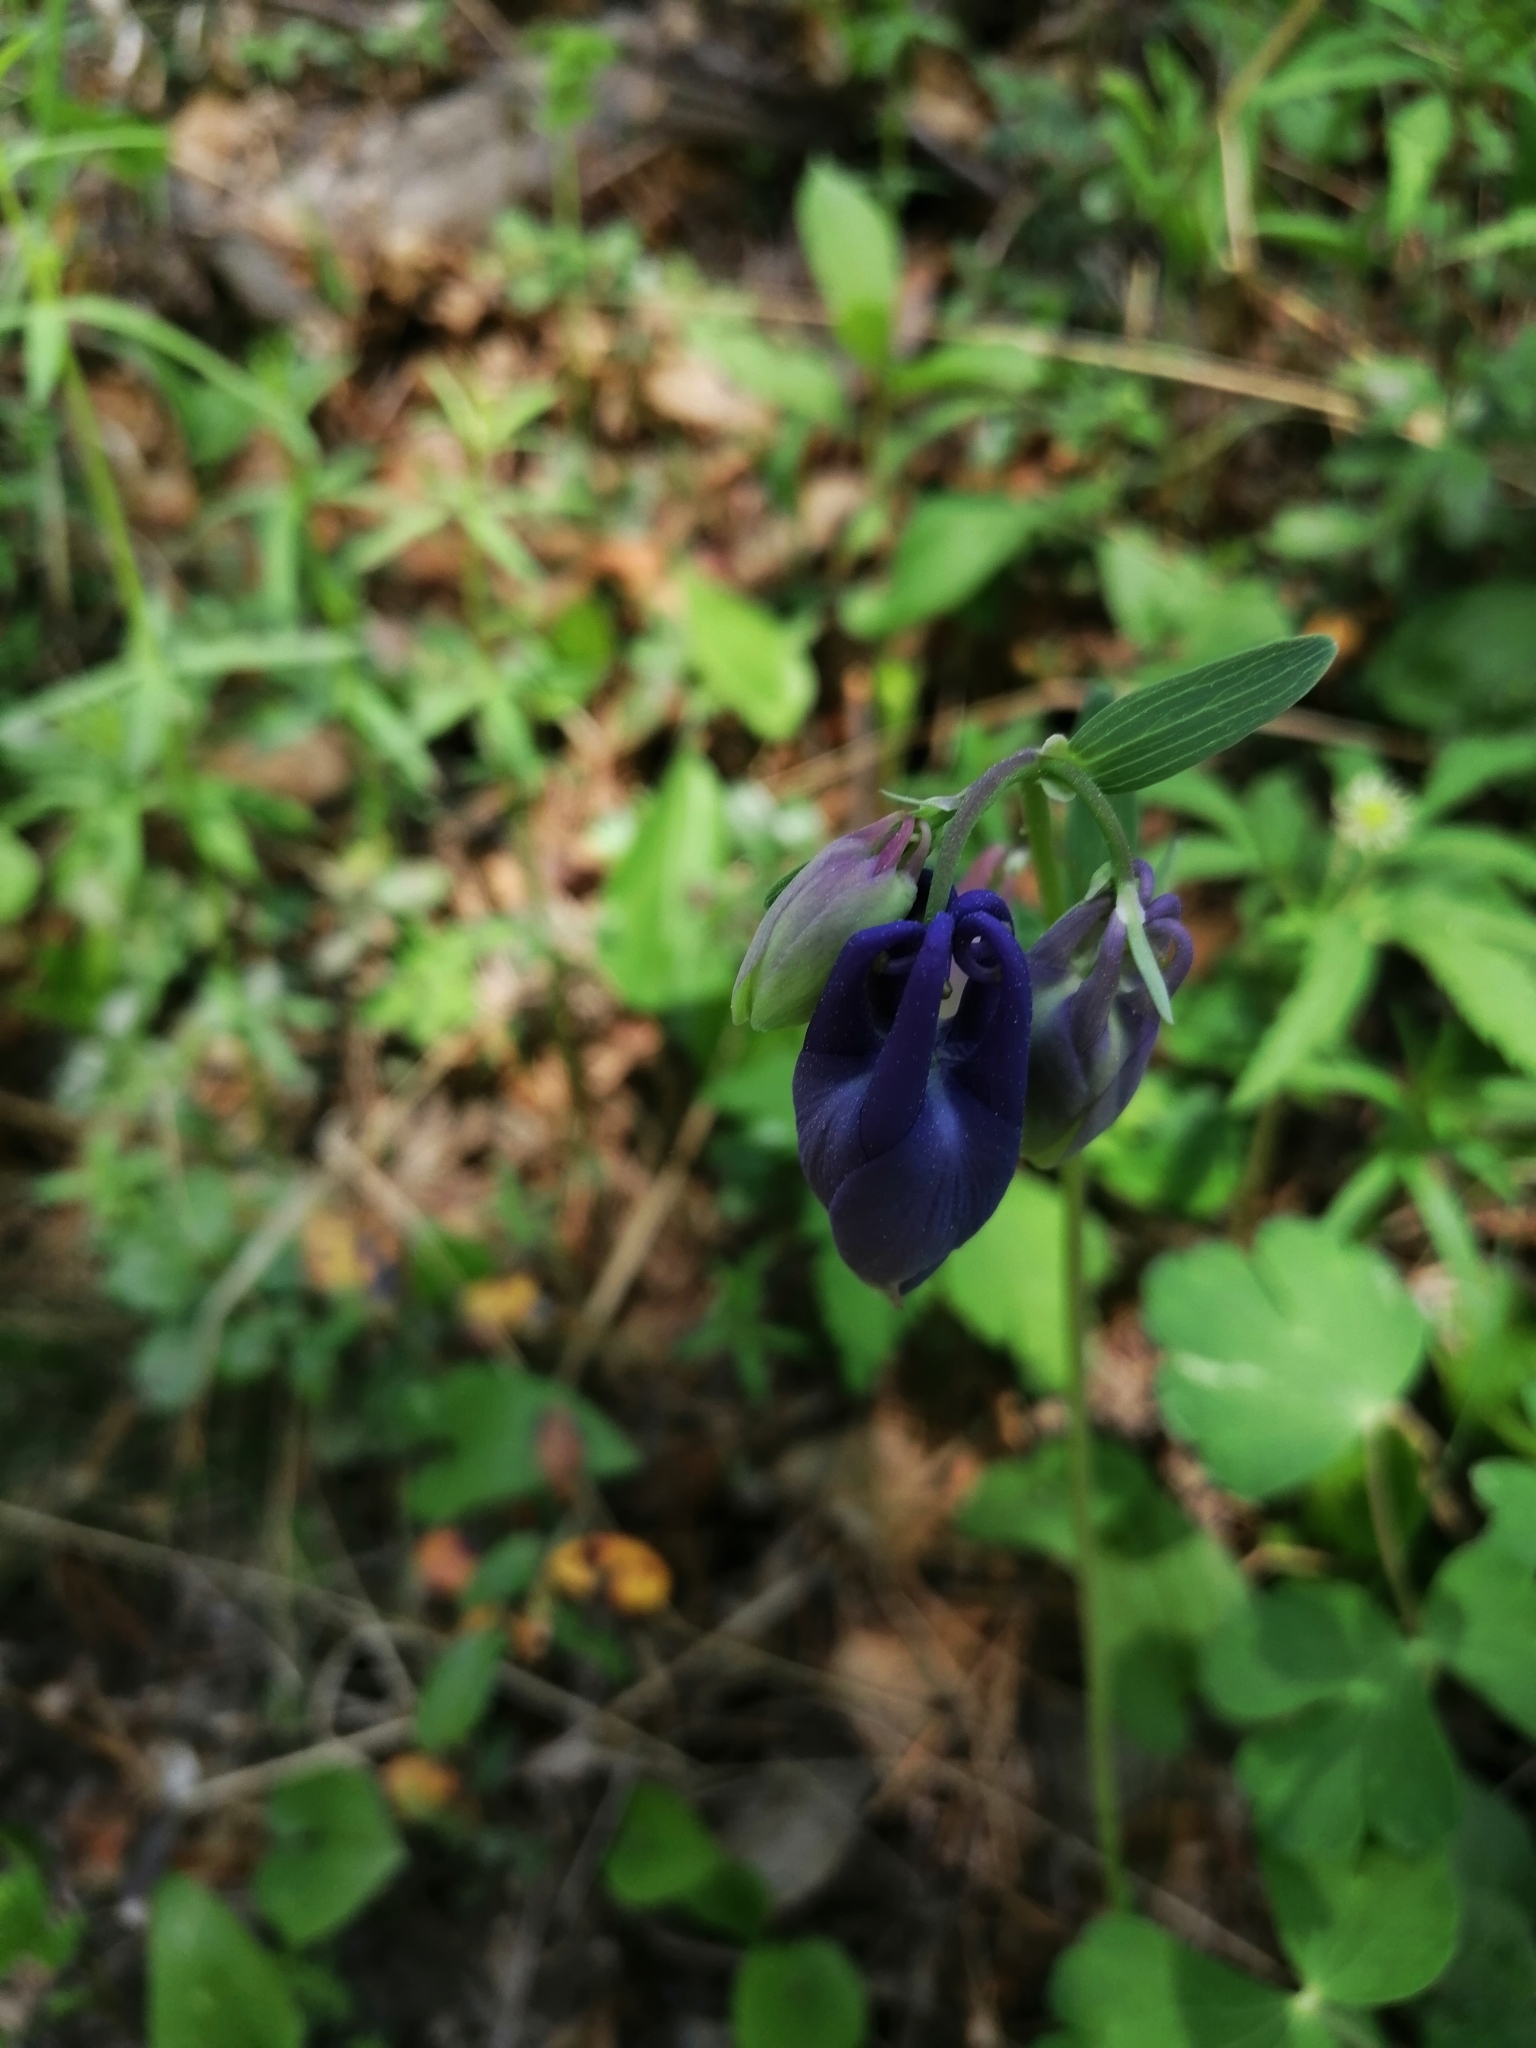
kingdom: Plantae
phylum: Tracheophyta
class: Magnoliopsida
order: Ranunculales
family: Ranunculaceae
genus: Aquilegia
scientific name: Aquilegia sibirica
